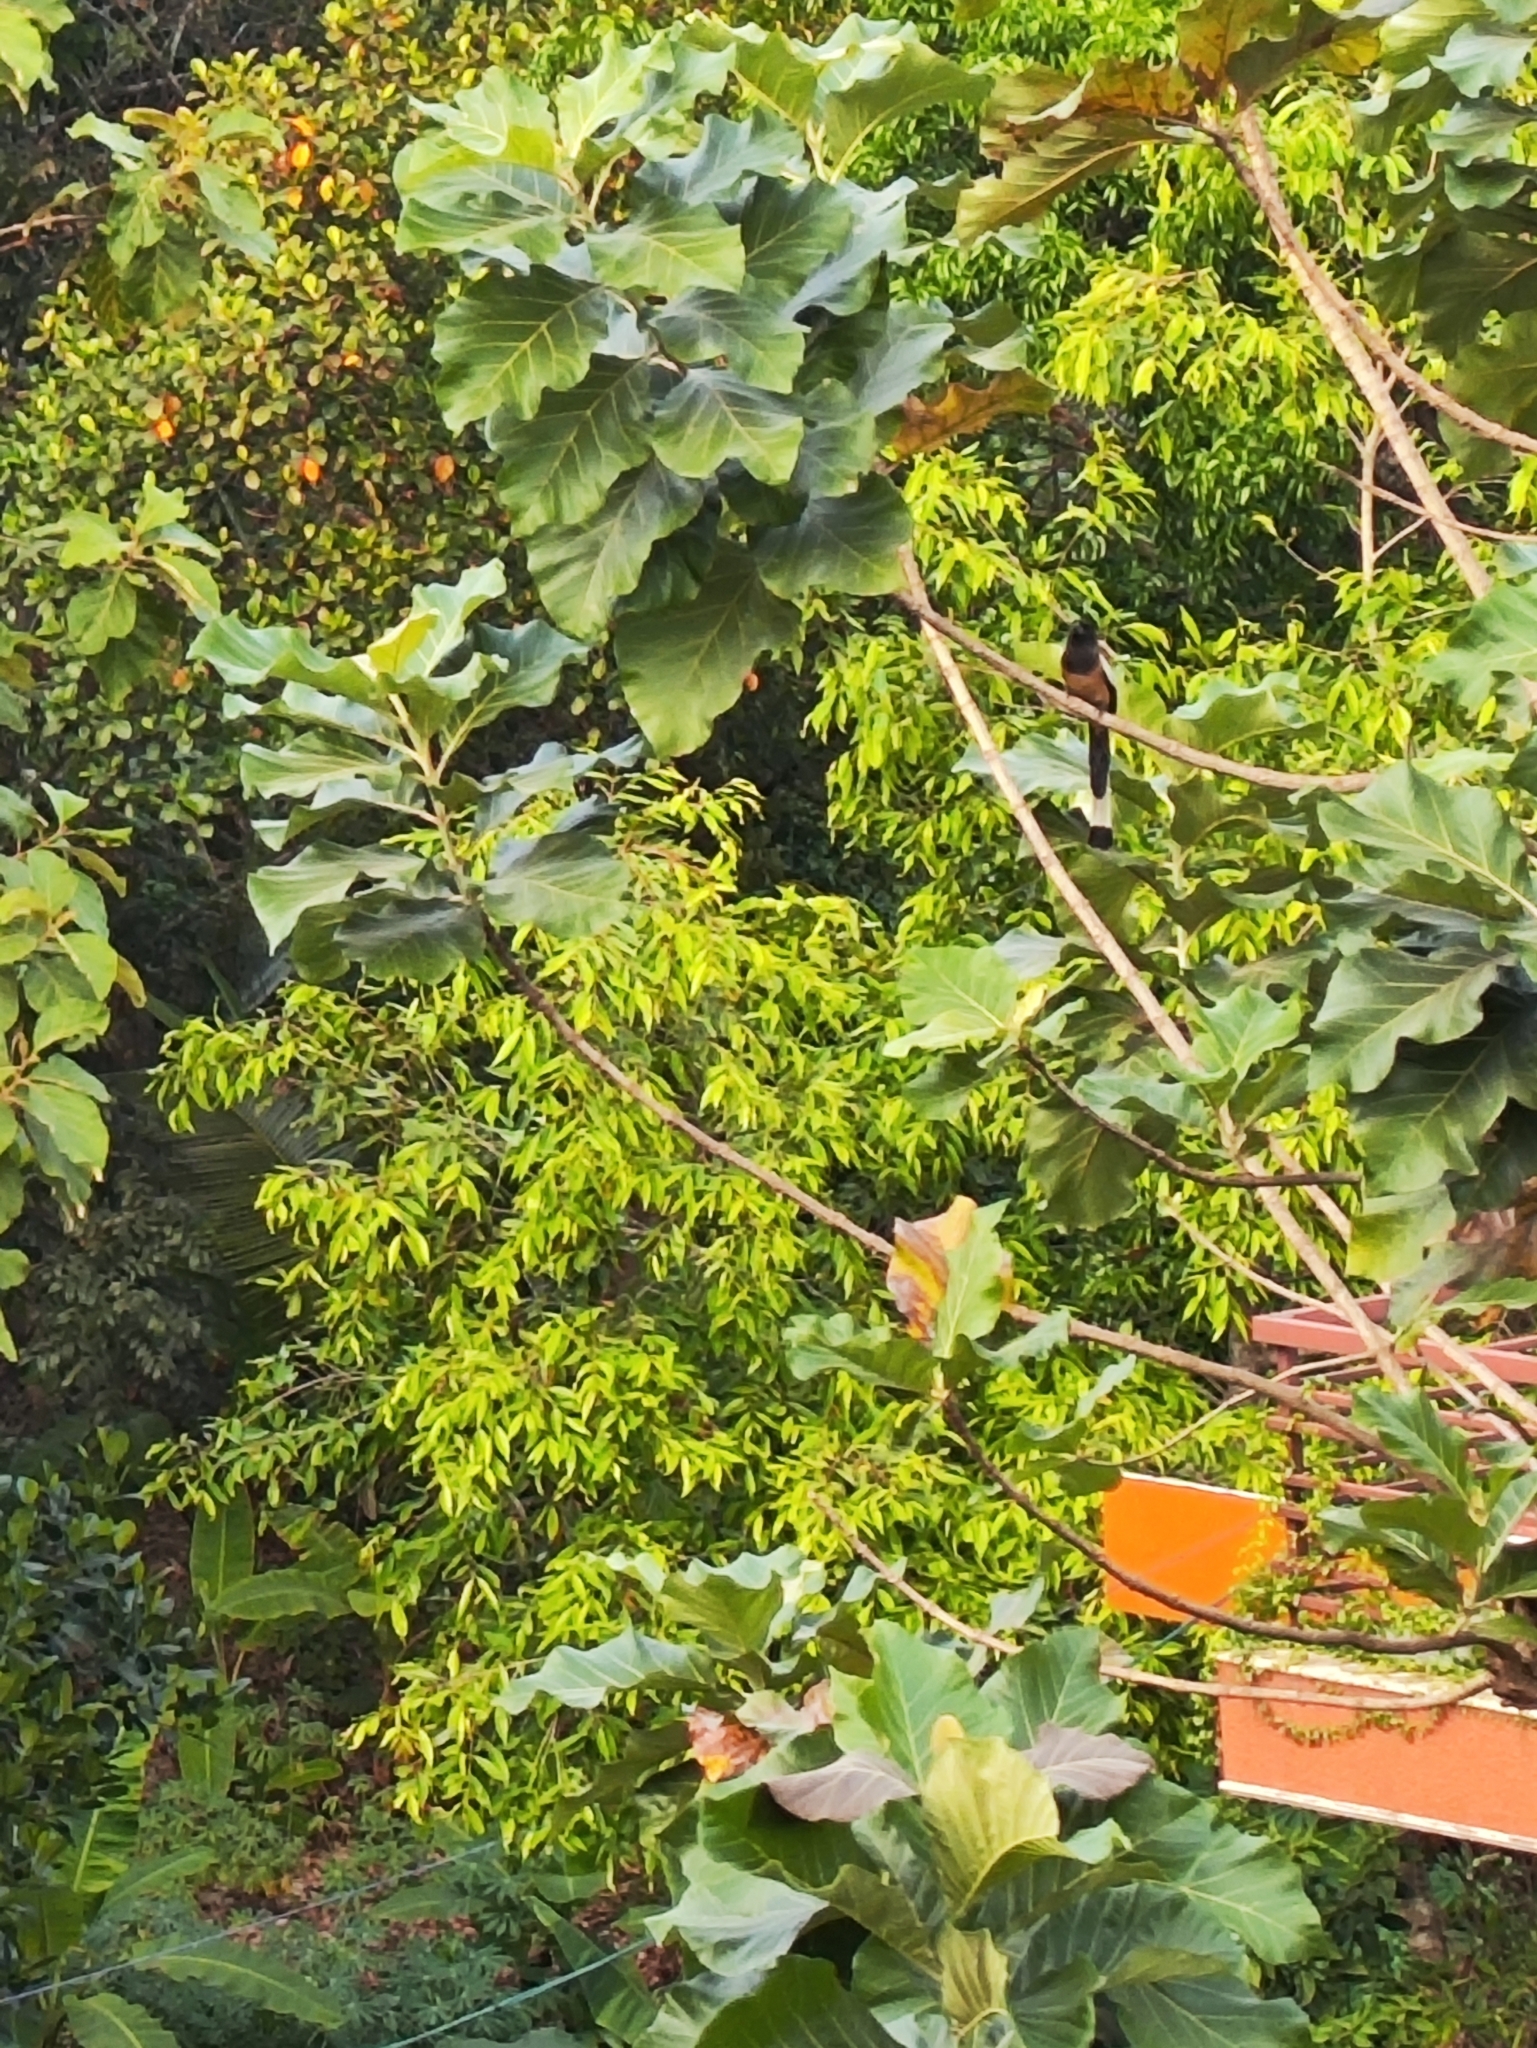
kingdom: Animalia
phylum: Chordata
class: Aves
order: Passeriformes
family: Corvidae
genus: Dendrocitta
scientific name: Dendrocitta vagabunda
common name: Rufous treepie
